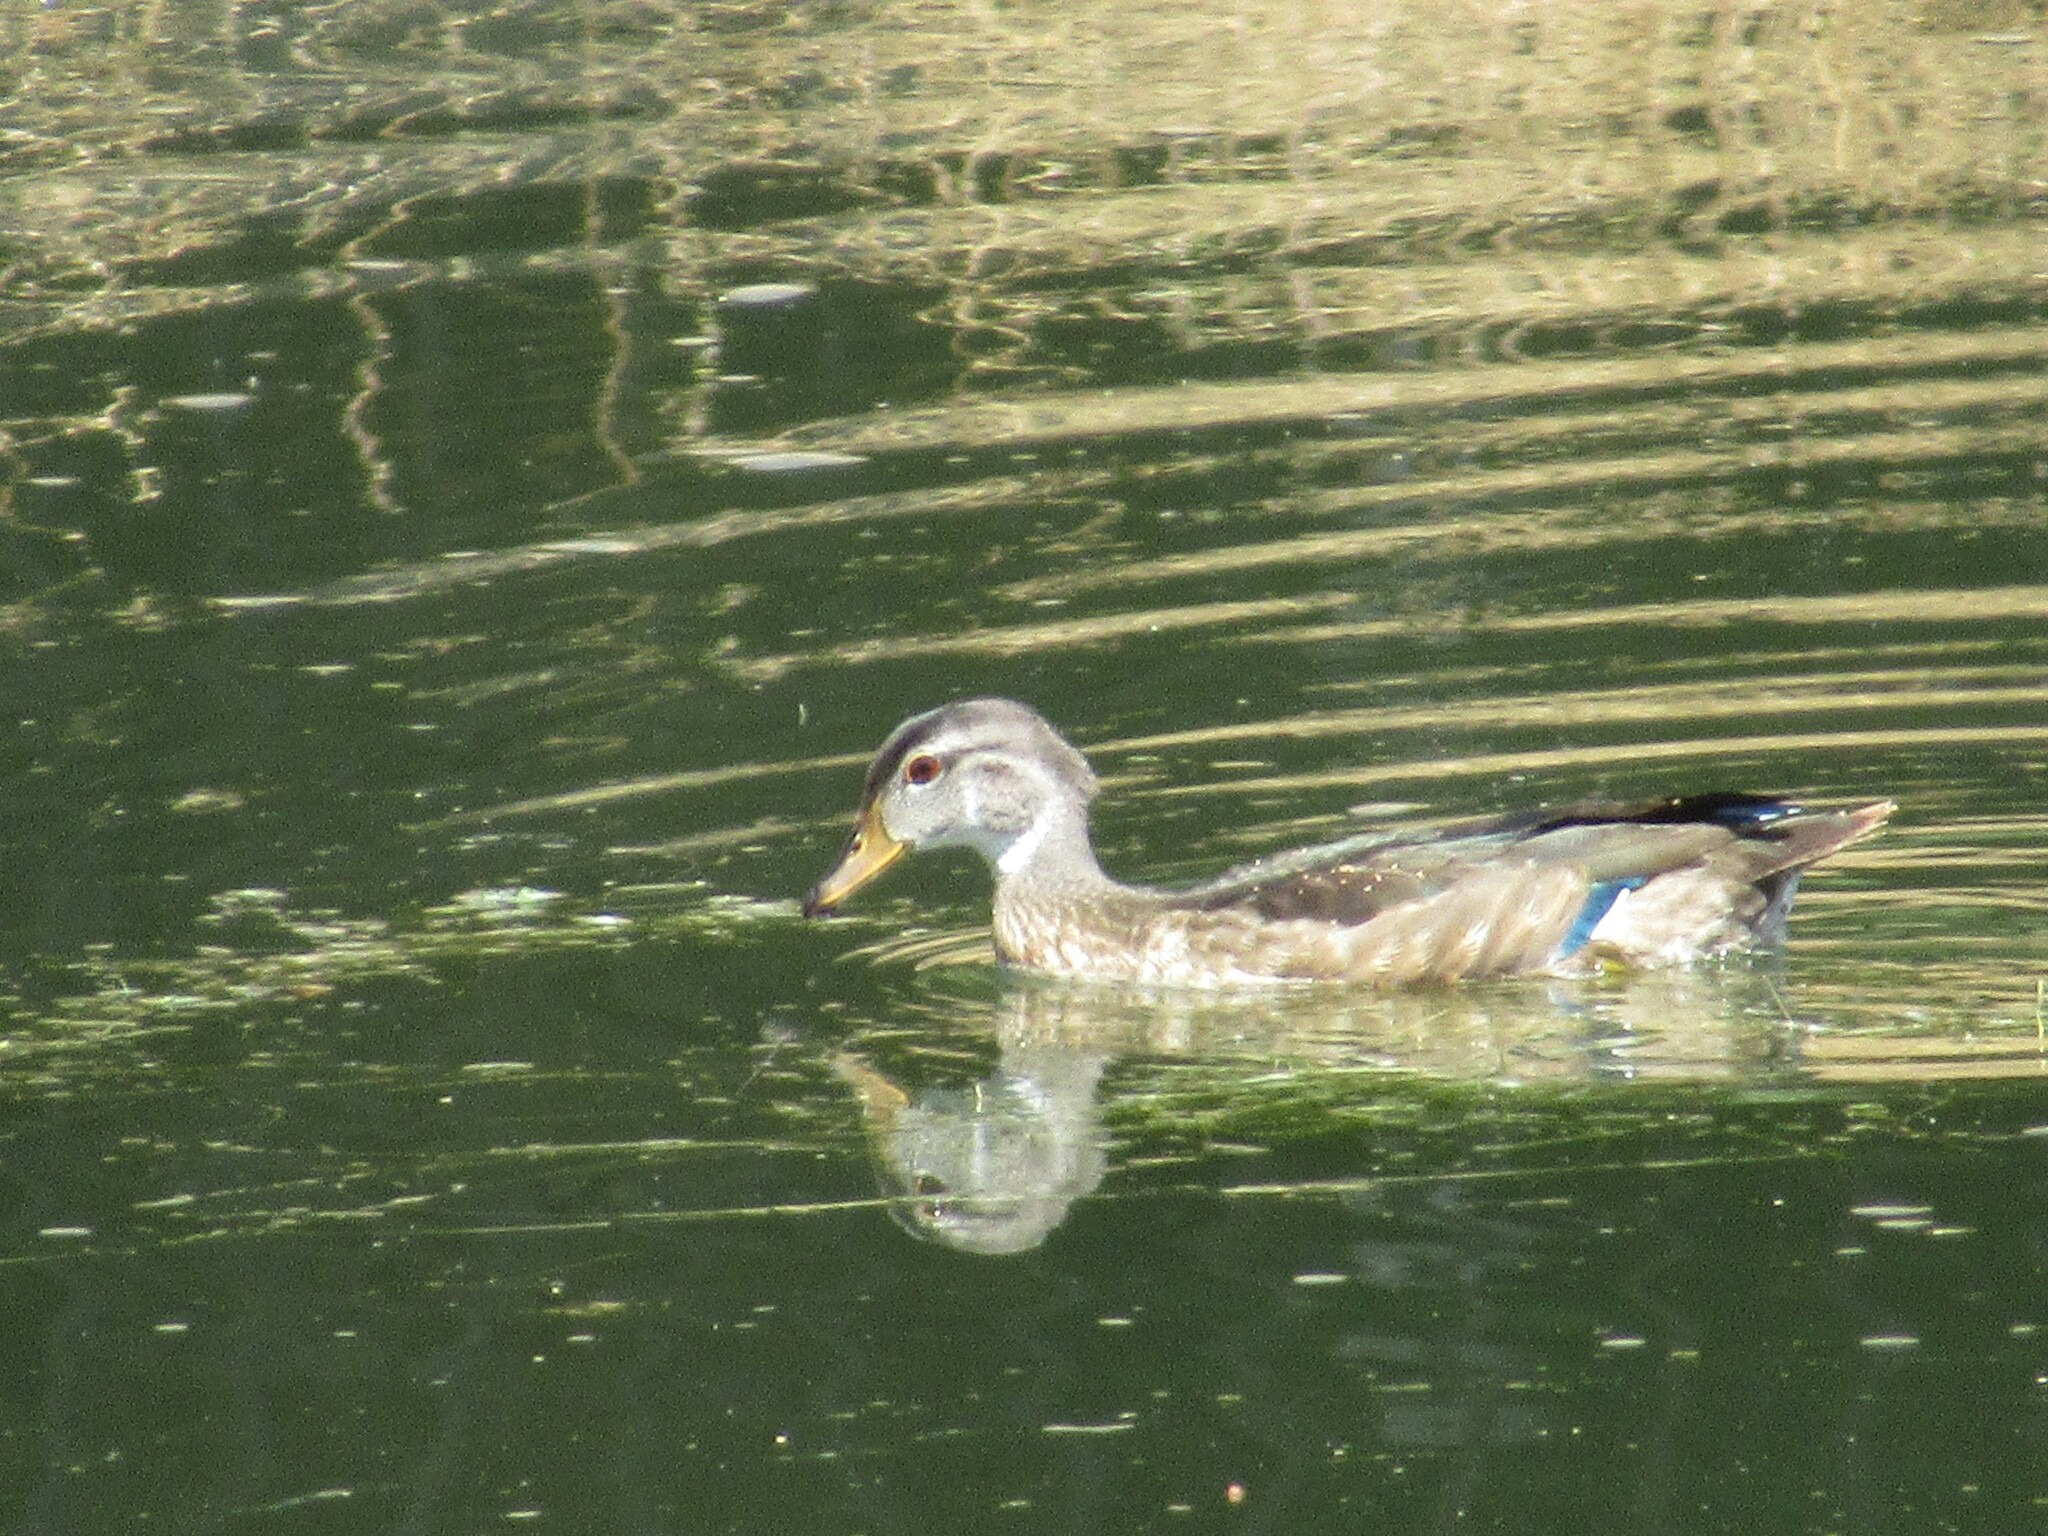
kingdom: Animalia
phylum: Chordata
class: Aves
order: Anseriformes
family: Anatidae
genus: Aix
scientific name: Aix sponsa
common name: Wood duck
